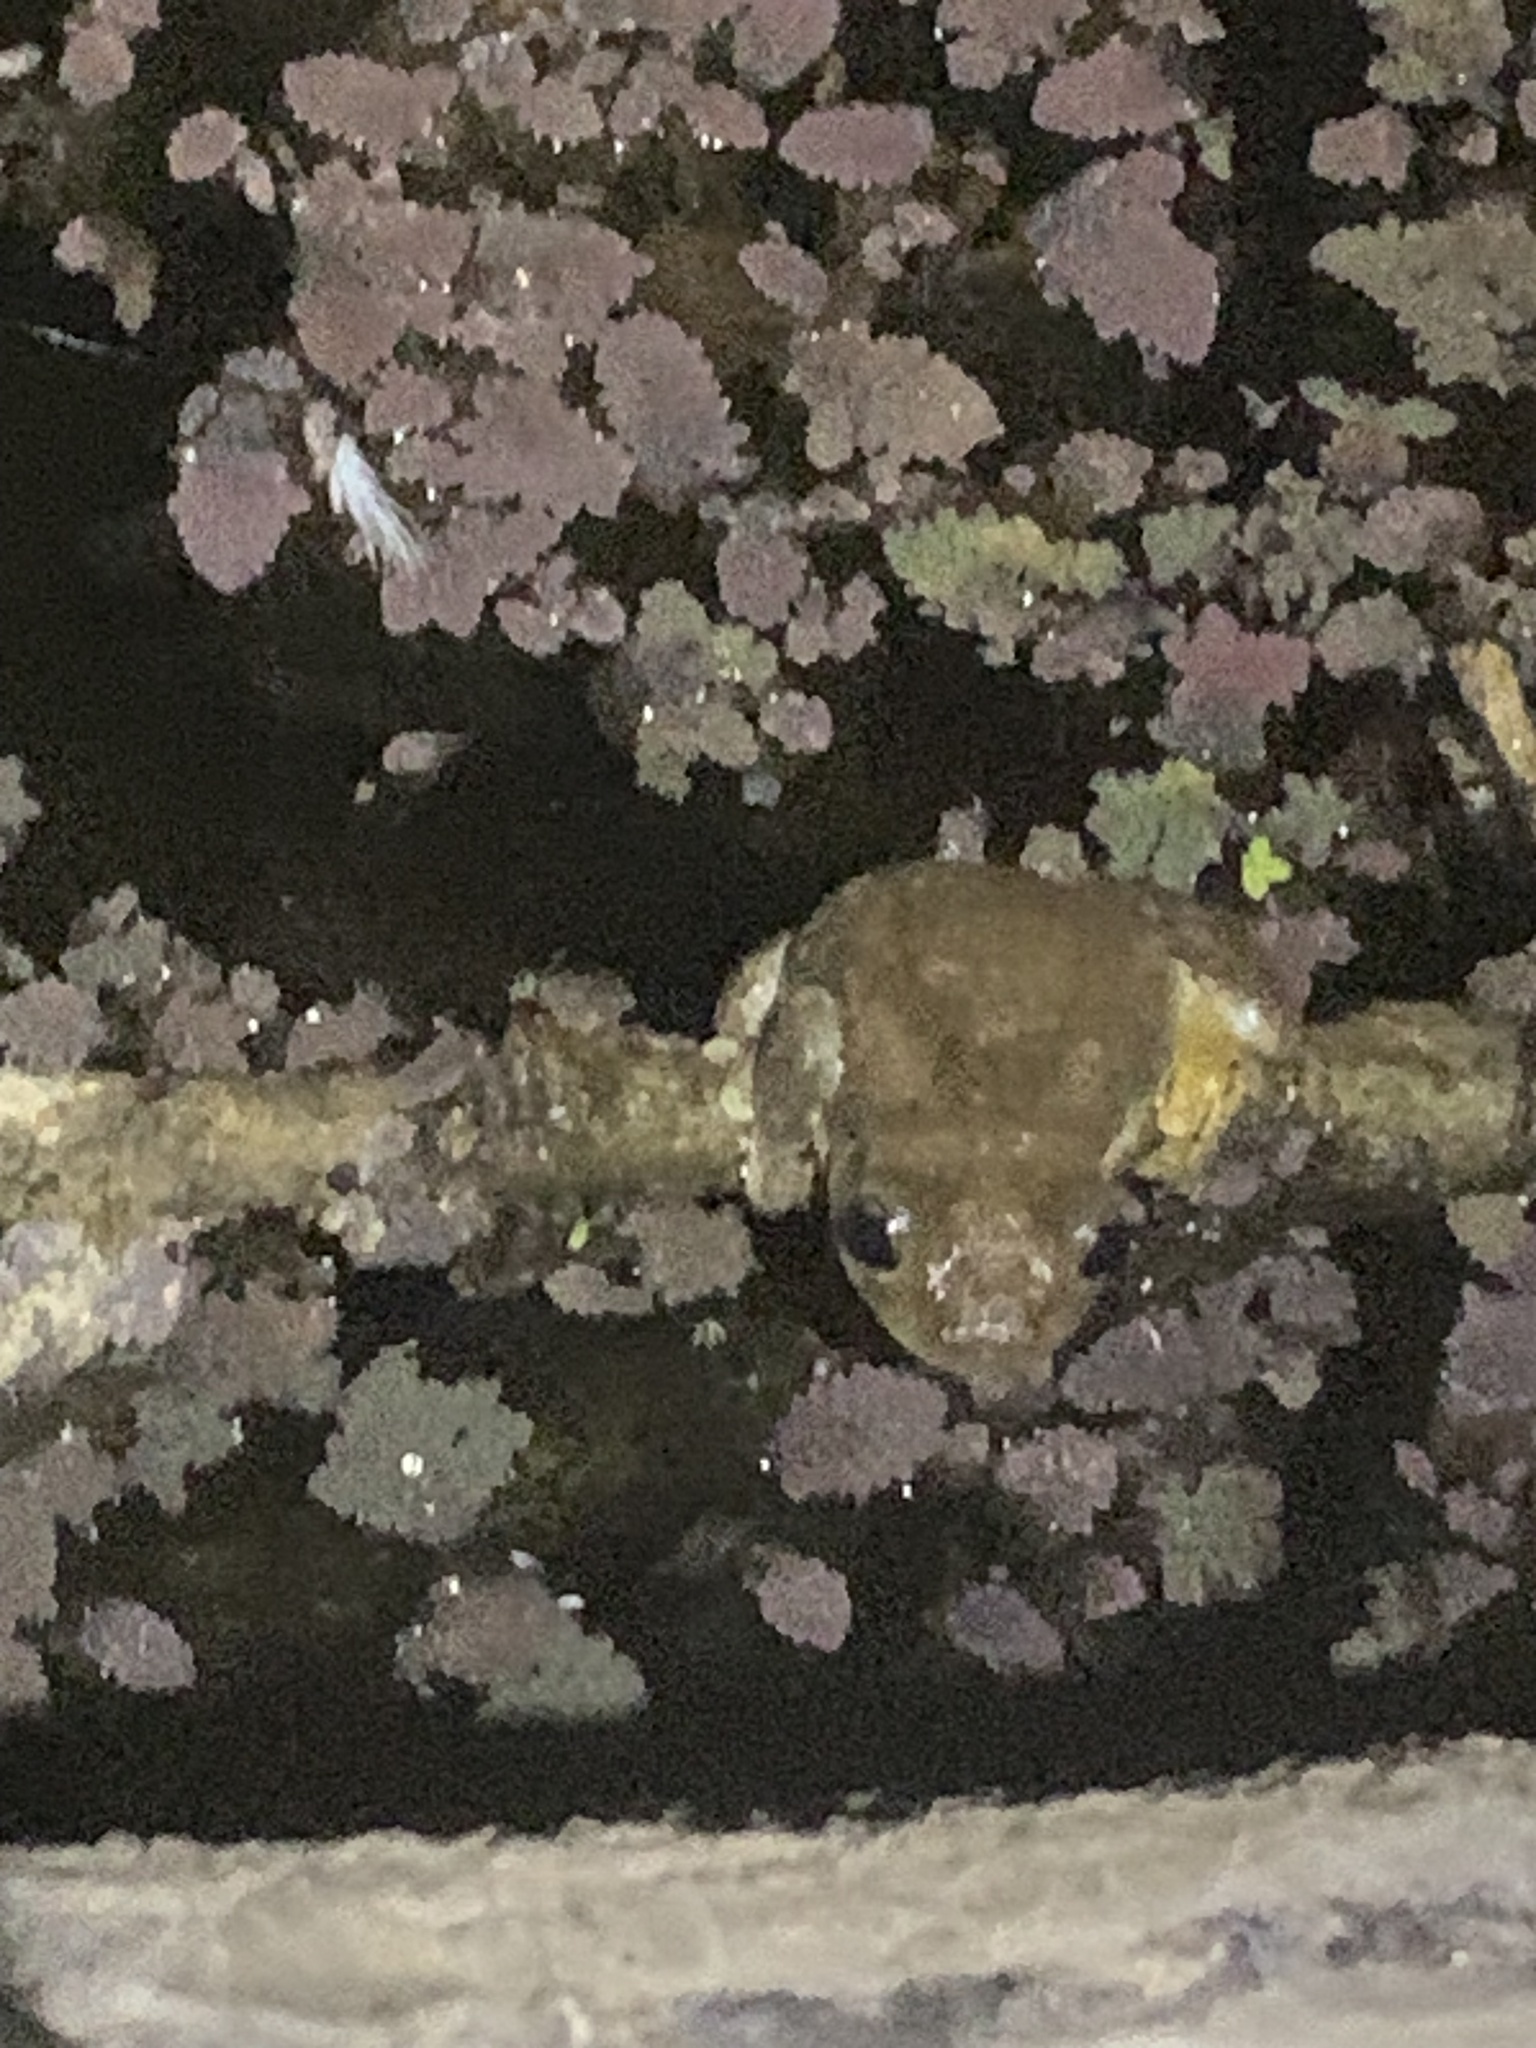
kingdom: Animalia
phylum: Chordata
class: Amphibia
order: Anura
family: Pelodryadidae
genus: Litoria
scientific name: Litoria peronii
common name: Emerald spotted treefrog
